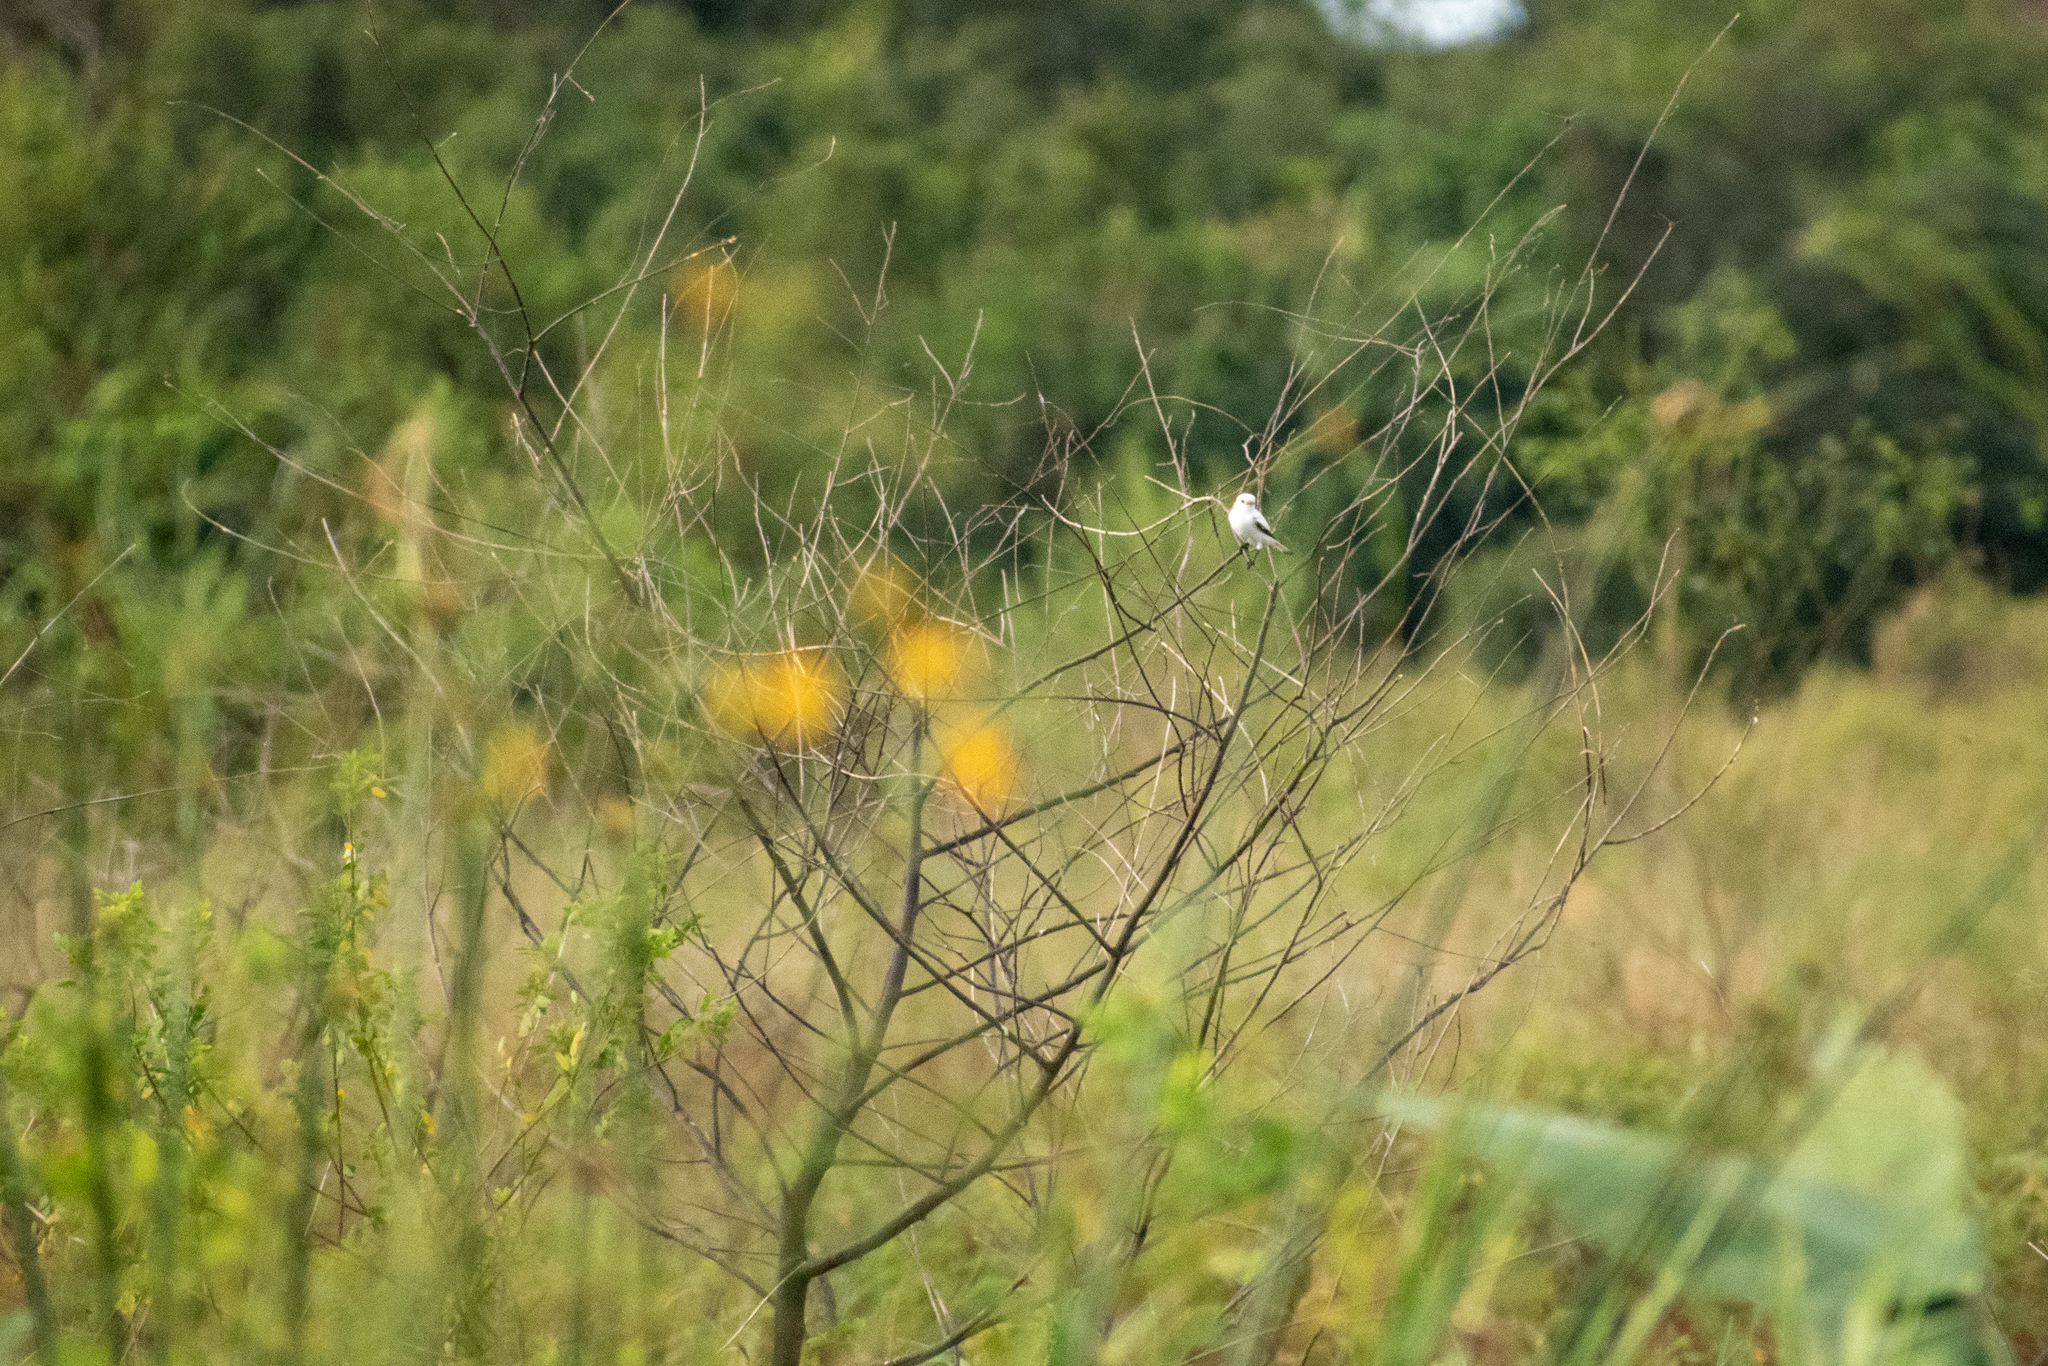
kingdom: Animalia
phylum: Chordata
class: Aves
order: Passeriformes
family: Tyrannidae
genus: Xolmis
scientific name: Xolmis irupero
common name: White monjita
